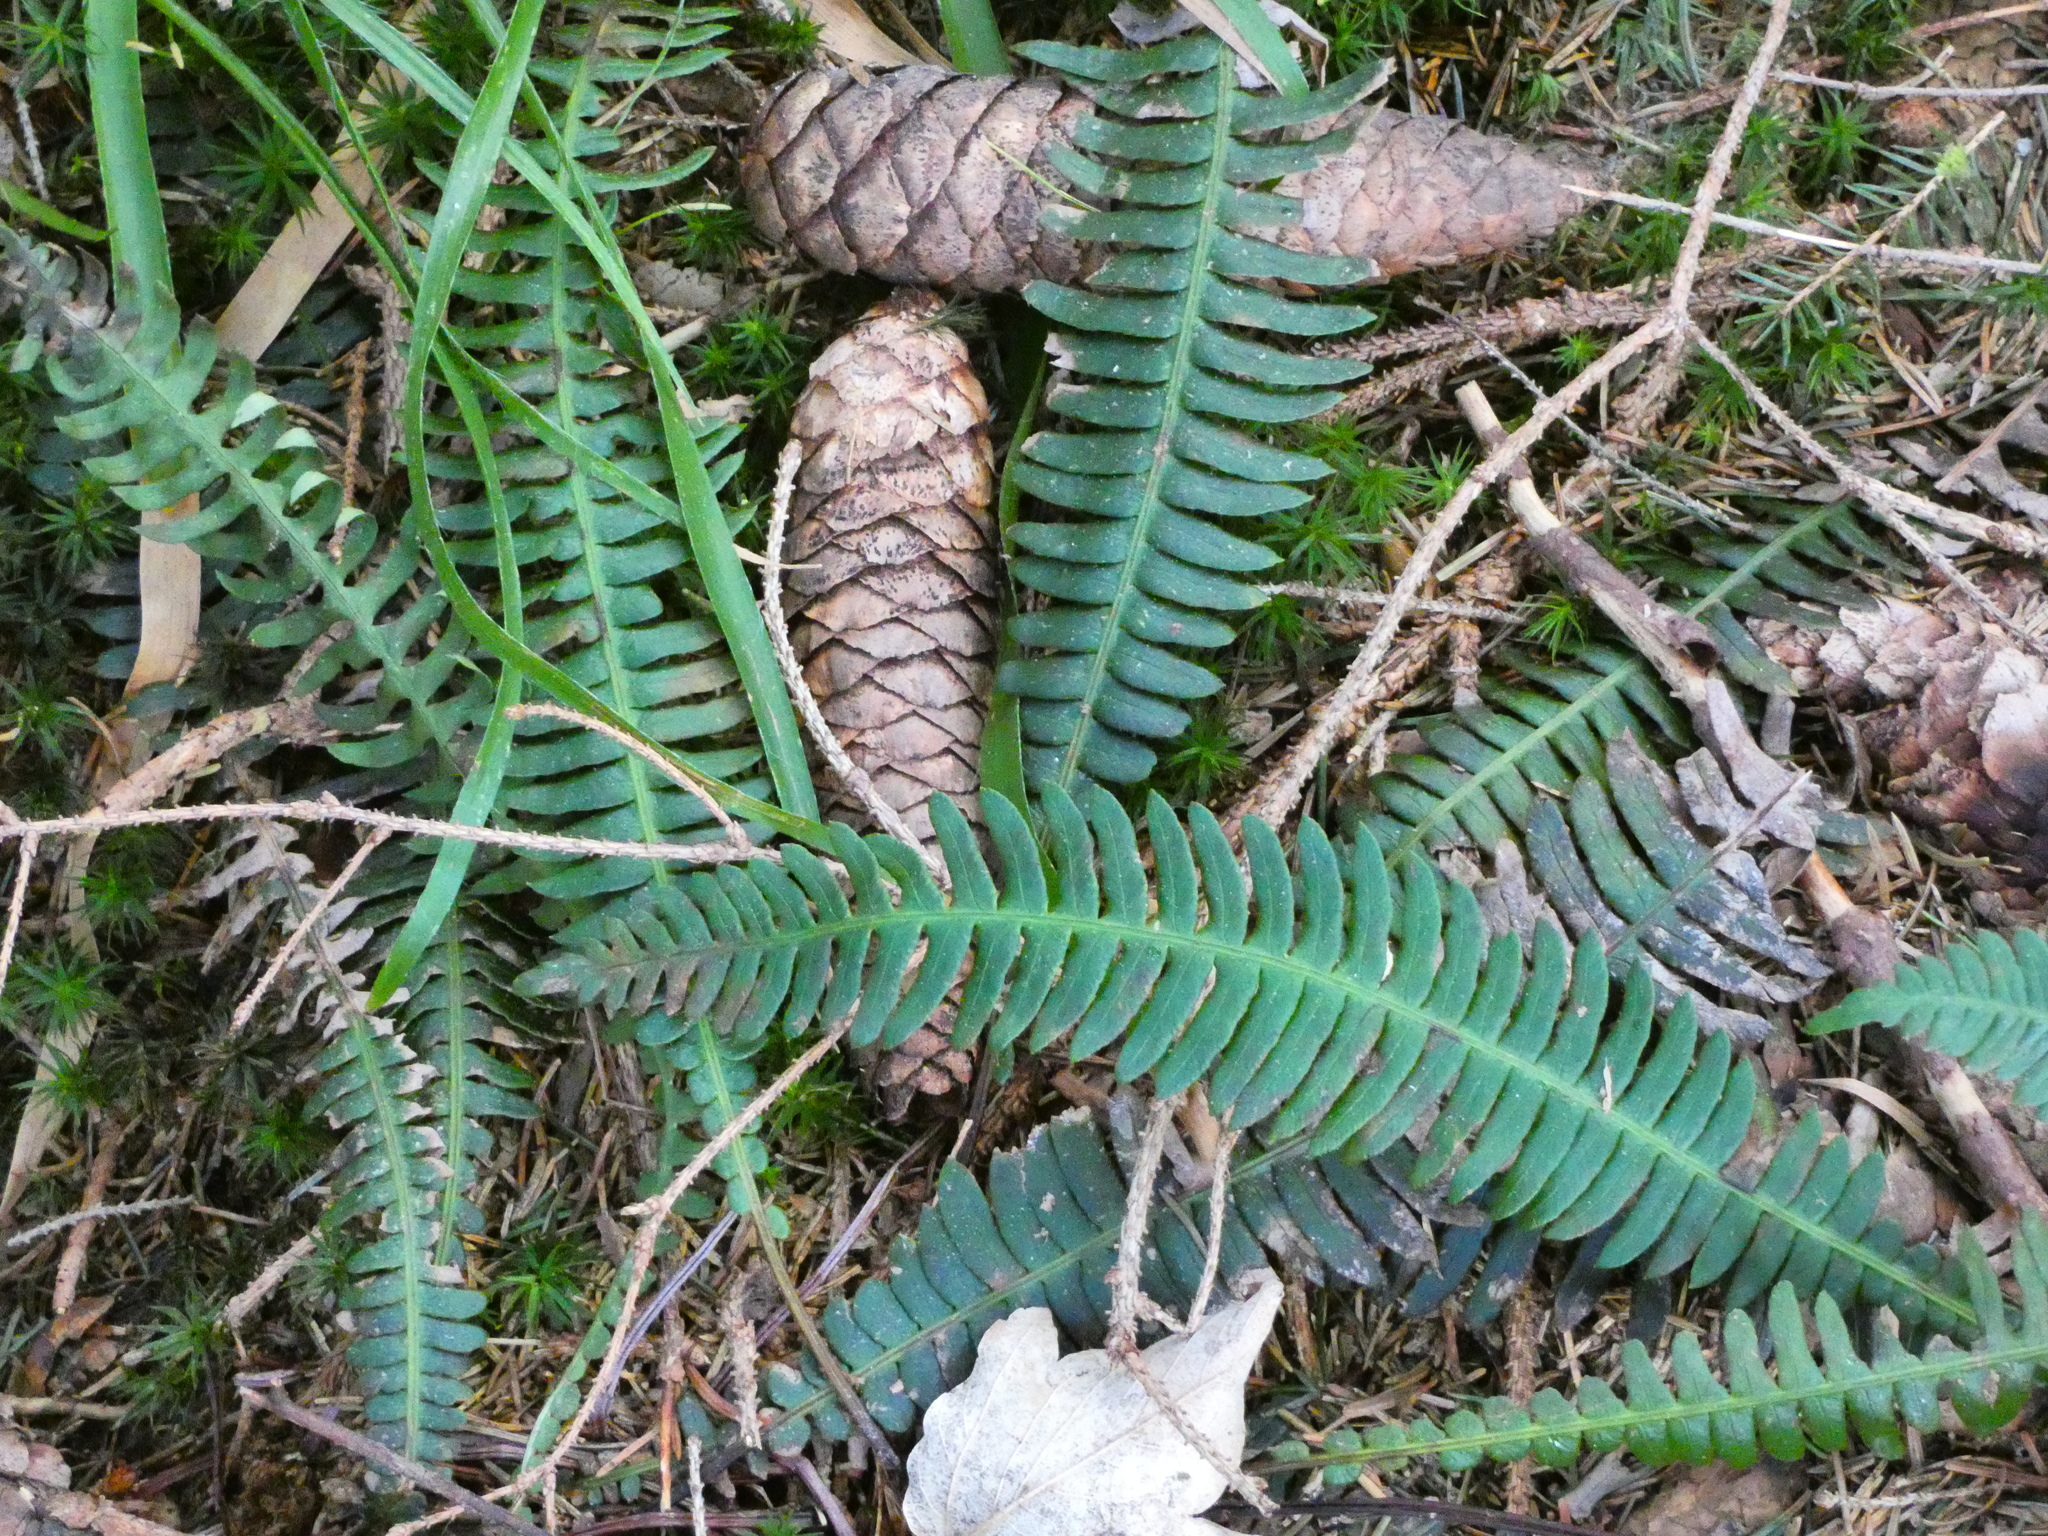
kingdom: Plantae
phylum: Tracheophyta
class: Polypodiopsida
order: Polypodiales
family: Blechnaceae
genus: Struthiopteris
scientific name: Struthiopteris spicant
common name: Deer fern
